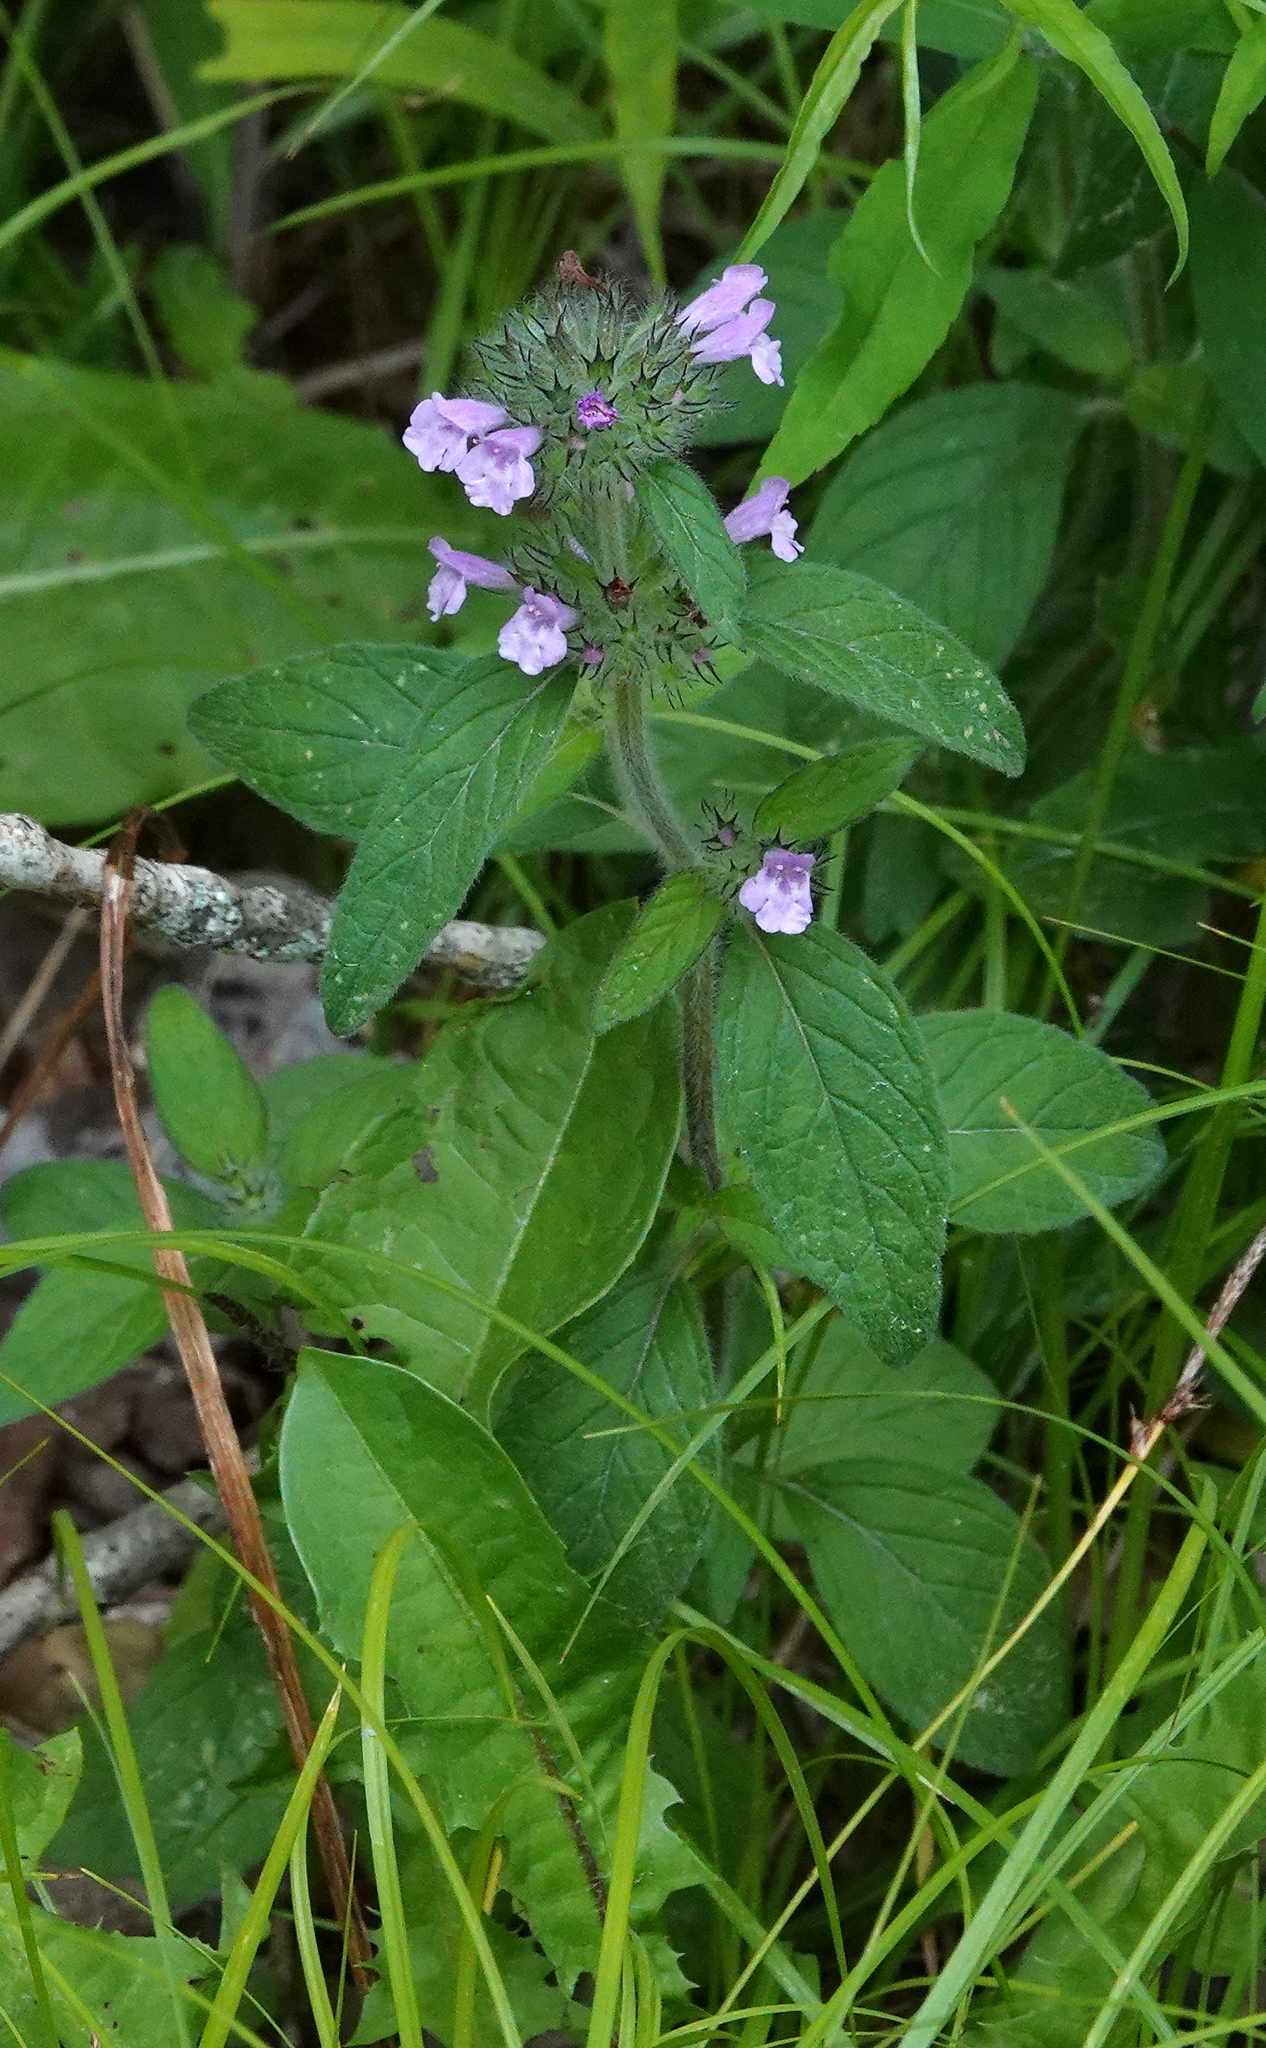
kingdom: Plantae
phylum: Tracheophyta
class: Magnoliopsida
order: Lamiales
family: Lamiaceae
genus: Clinopodium
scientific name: Clinopodium vulgare
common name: Wild basil
